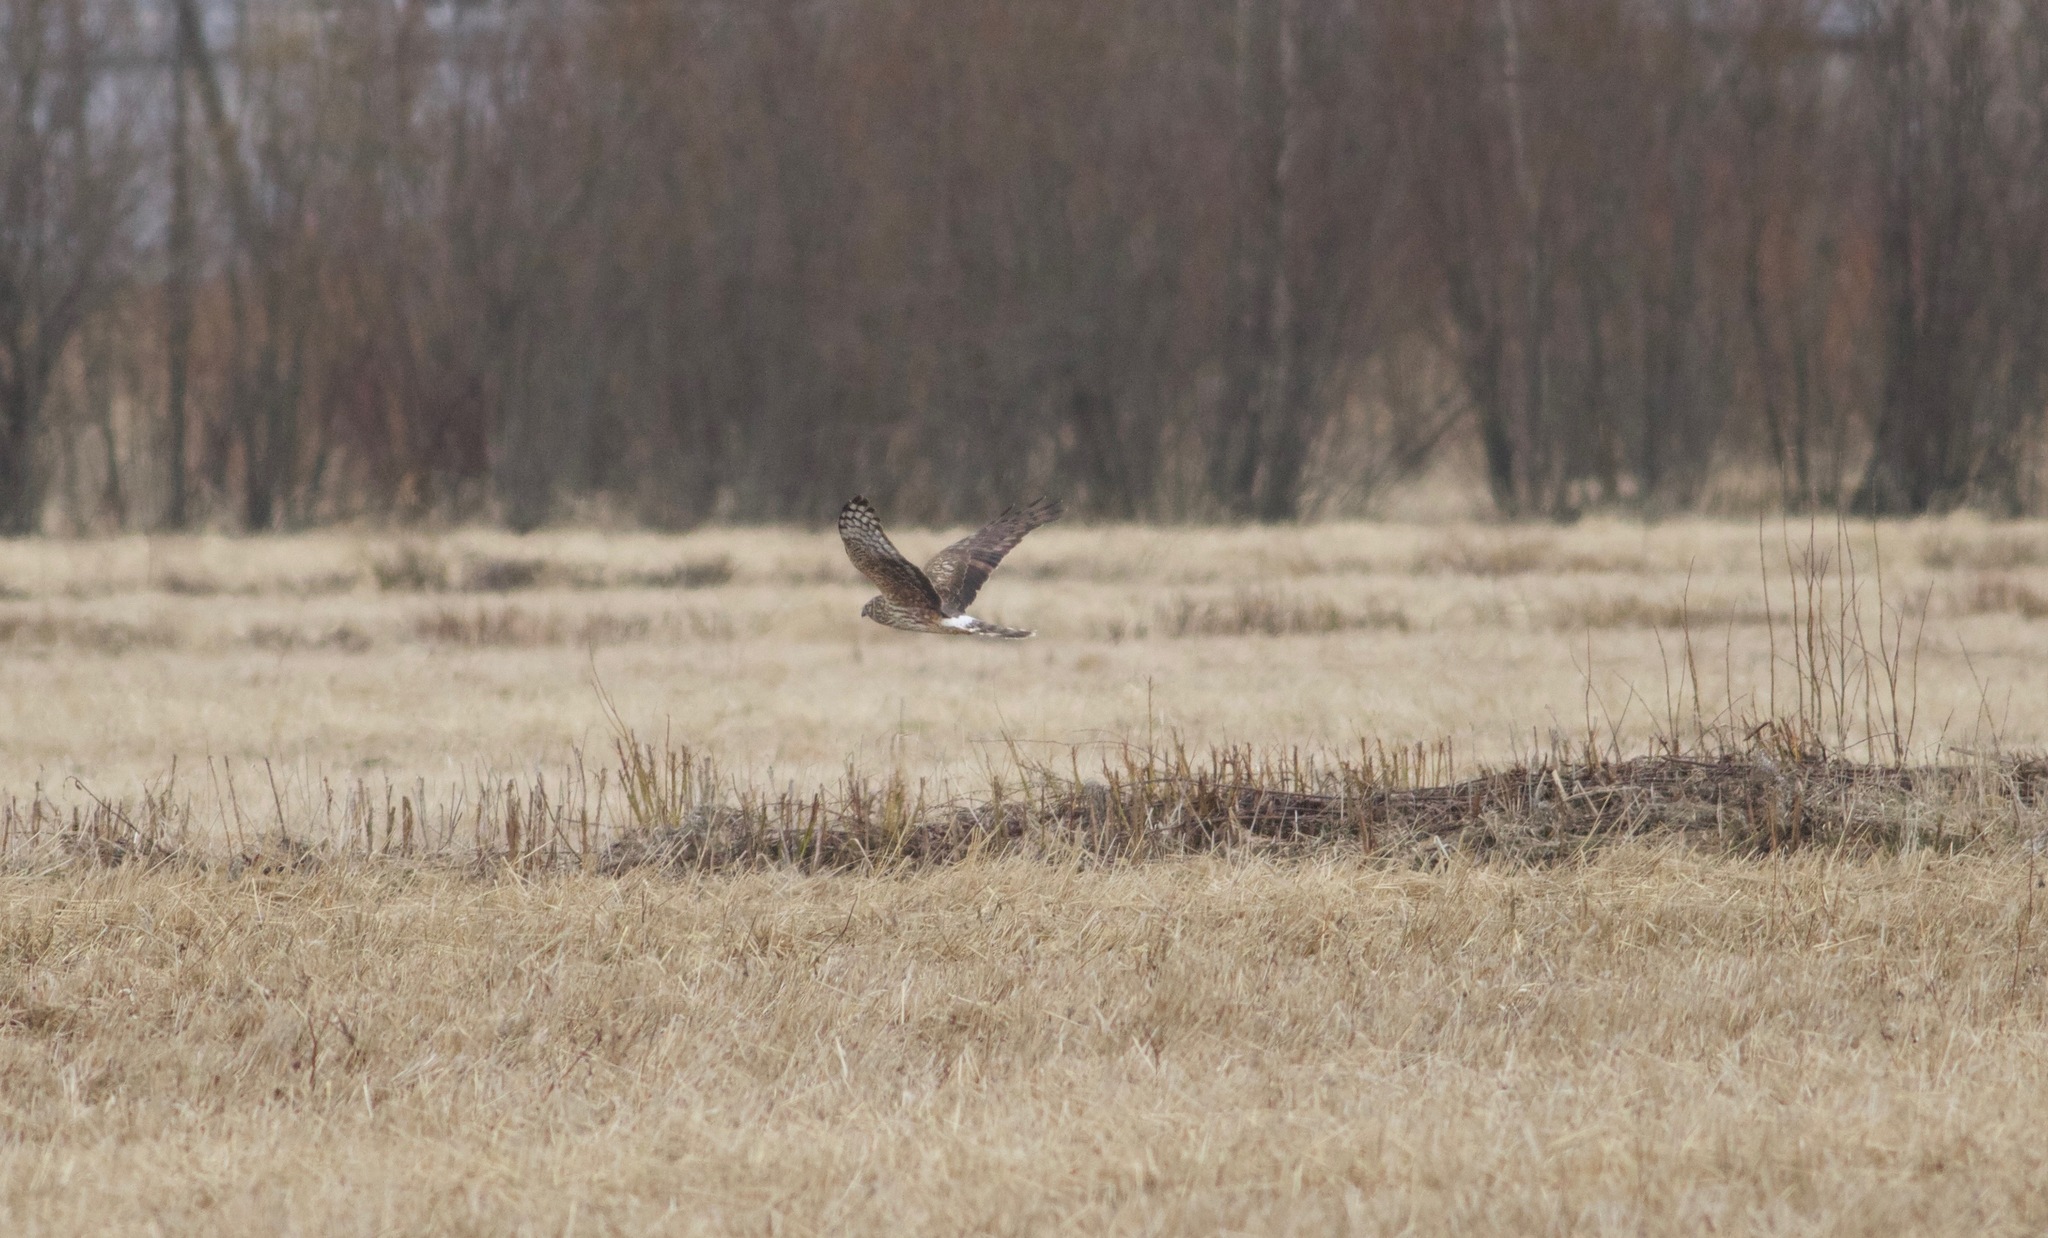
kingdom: Animalia
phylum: Chordata
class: Aves
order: Accipitriformes
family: Accipitridae
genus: Circus
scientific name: Circus cyaneus
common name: Hen harrier
